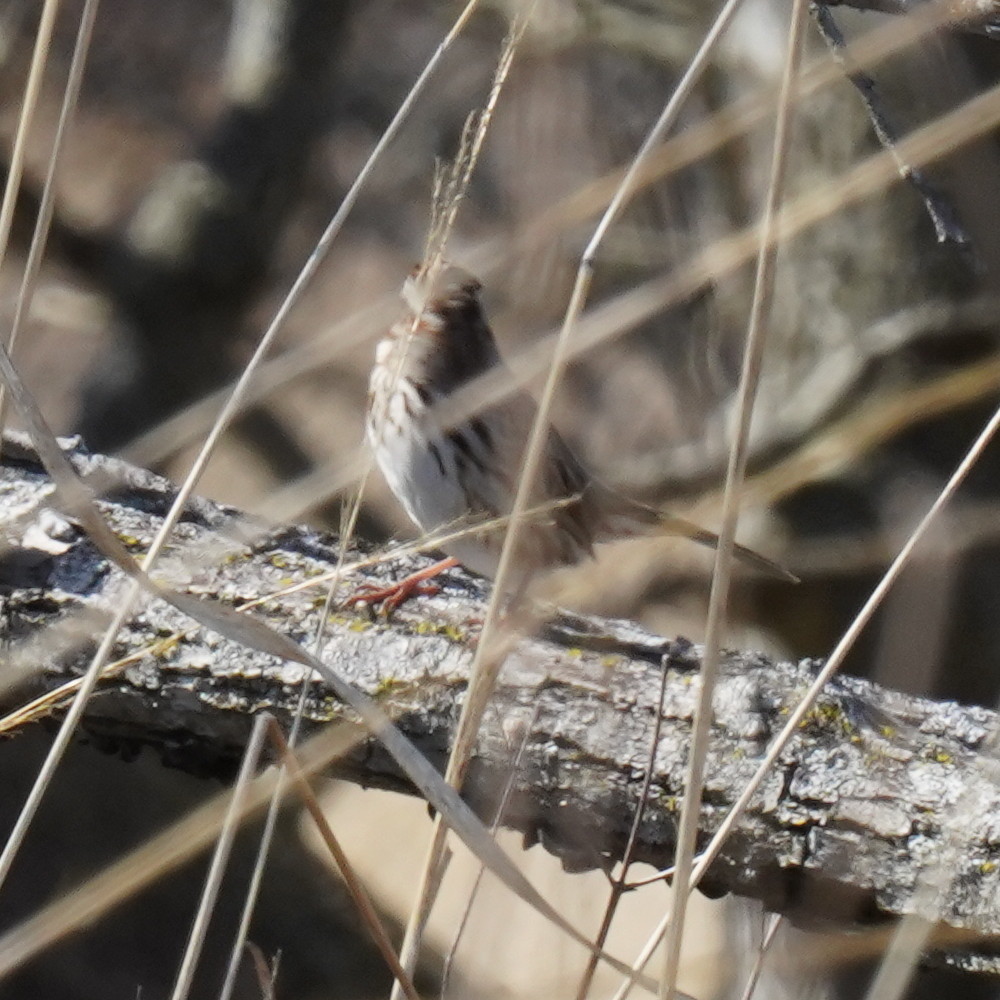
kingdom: Animalia
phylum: Chordata
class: Aves
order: Passeriformes
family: Passerellidae
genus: Melospiza
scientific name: Melospiza melodia
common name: Song sparrow
